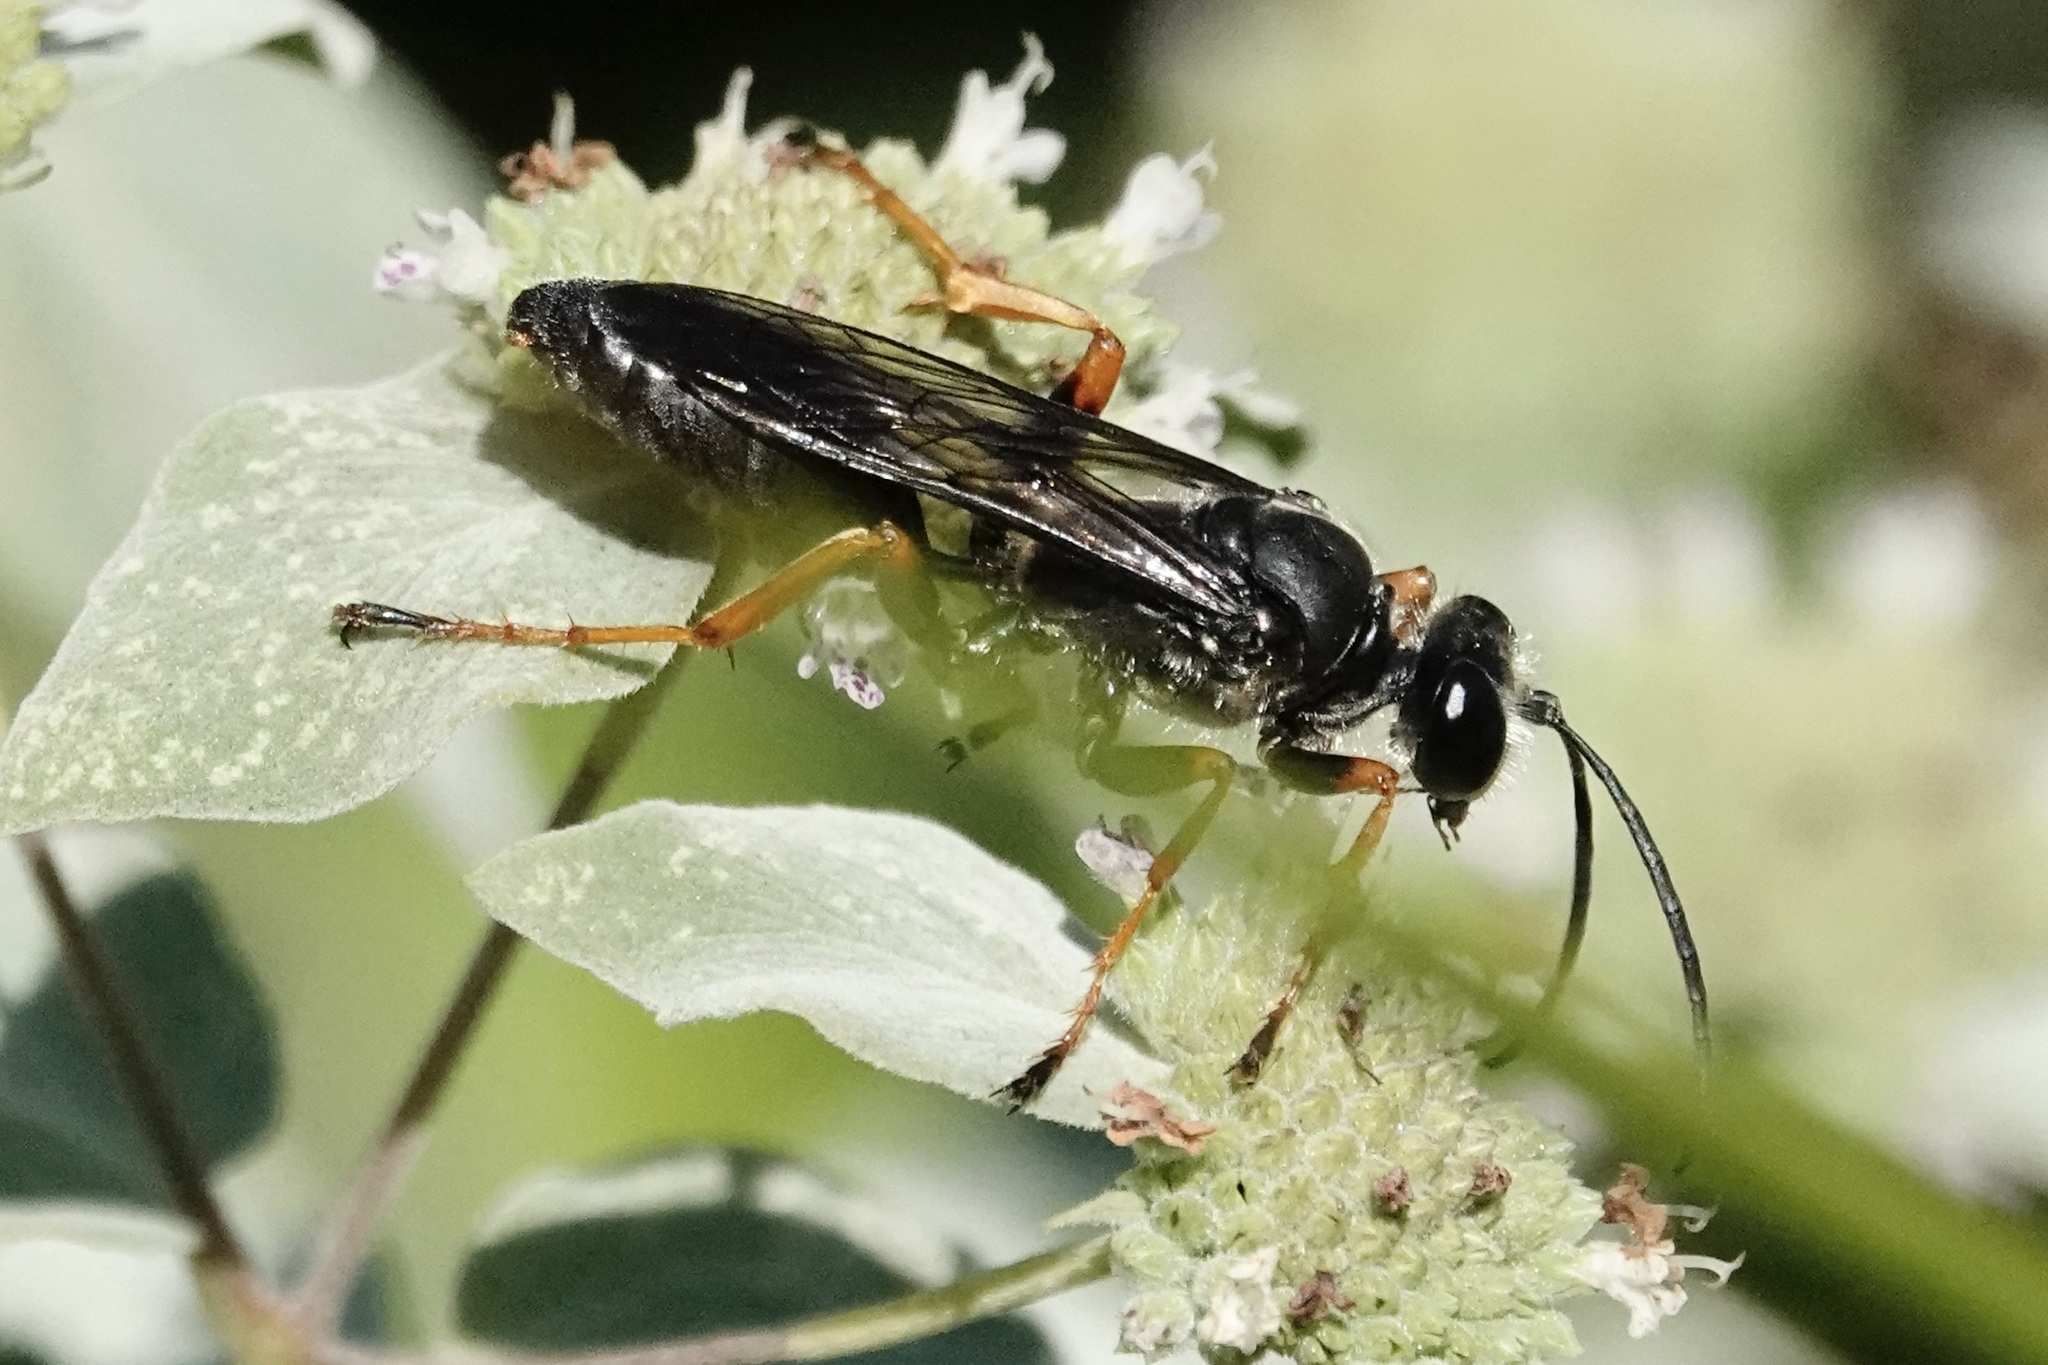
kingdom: Animalia
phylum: Arthropoda
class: Insecta
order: Hymenoptera
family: Sphecidae
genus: Sphex
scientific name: Sphex nudus
